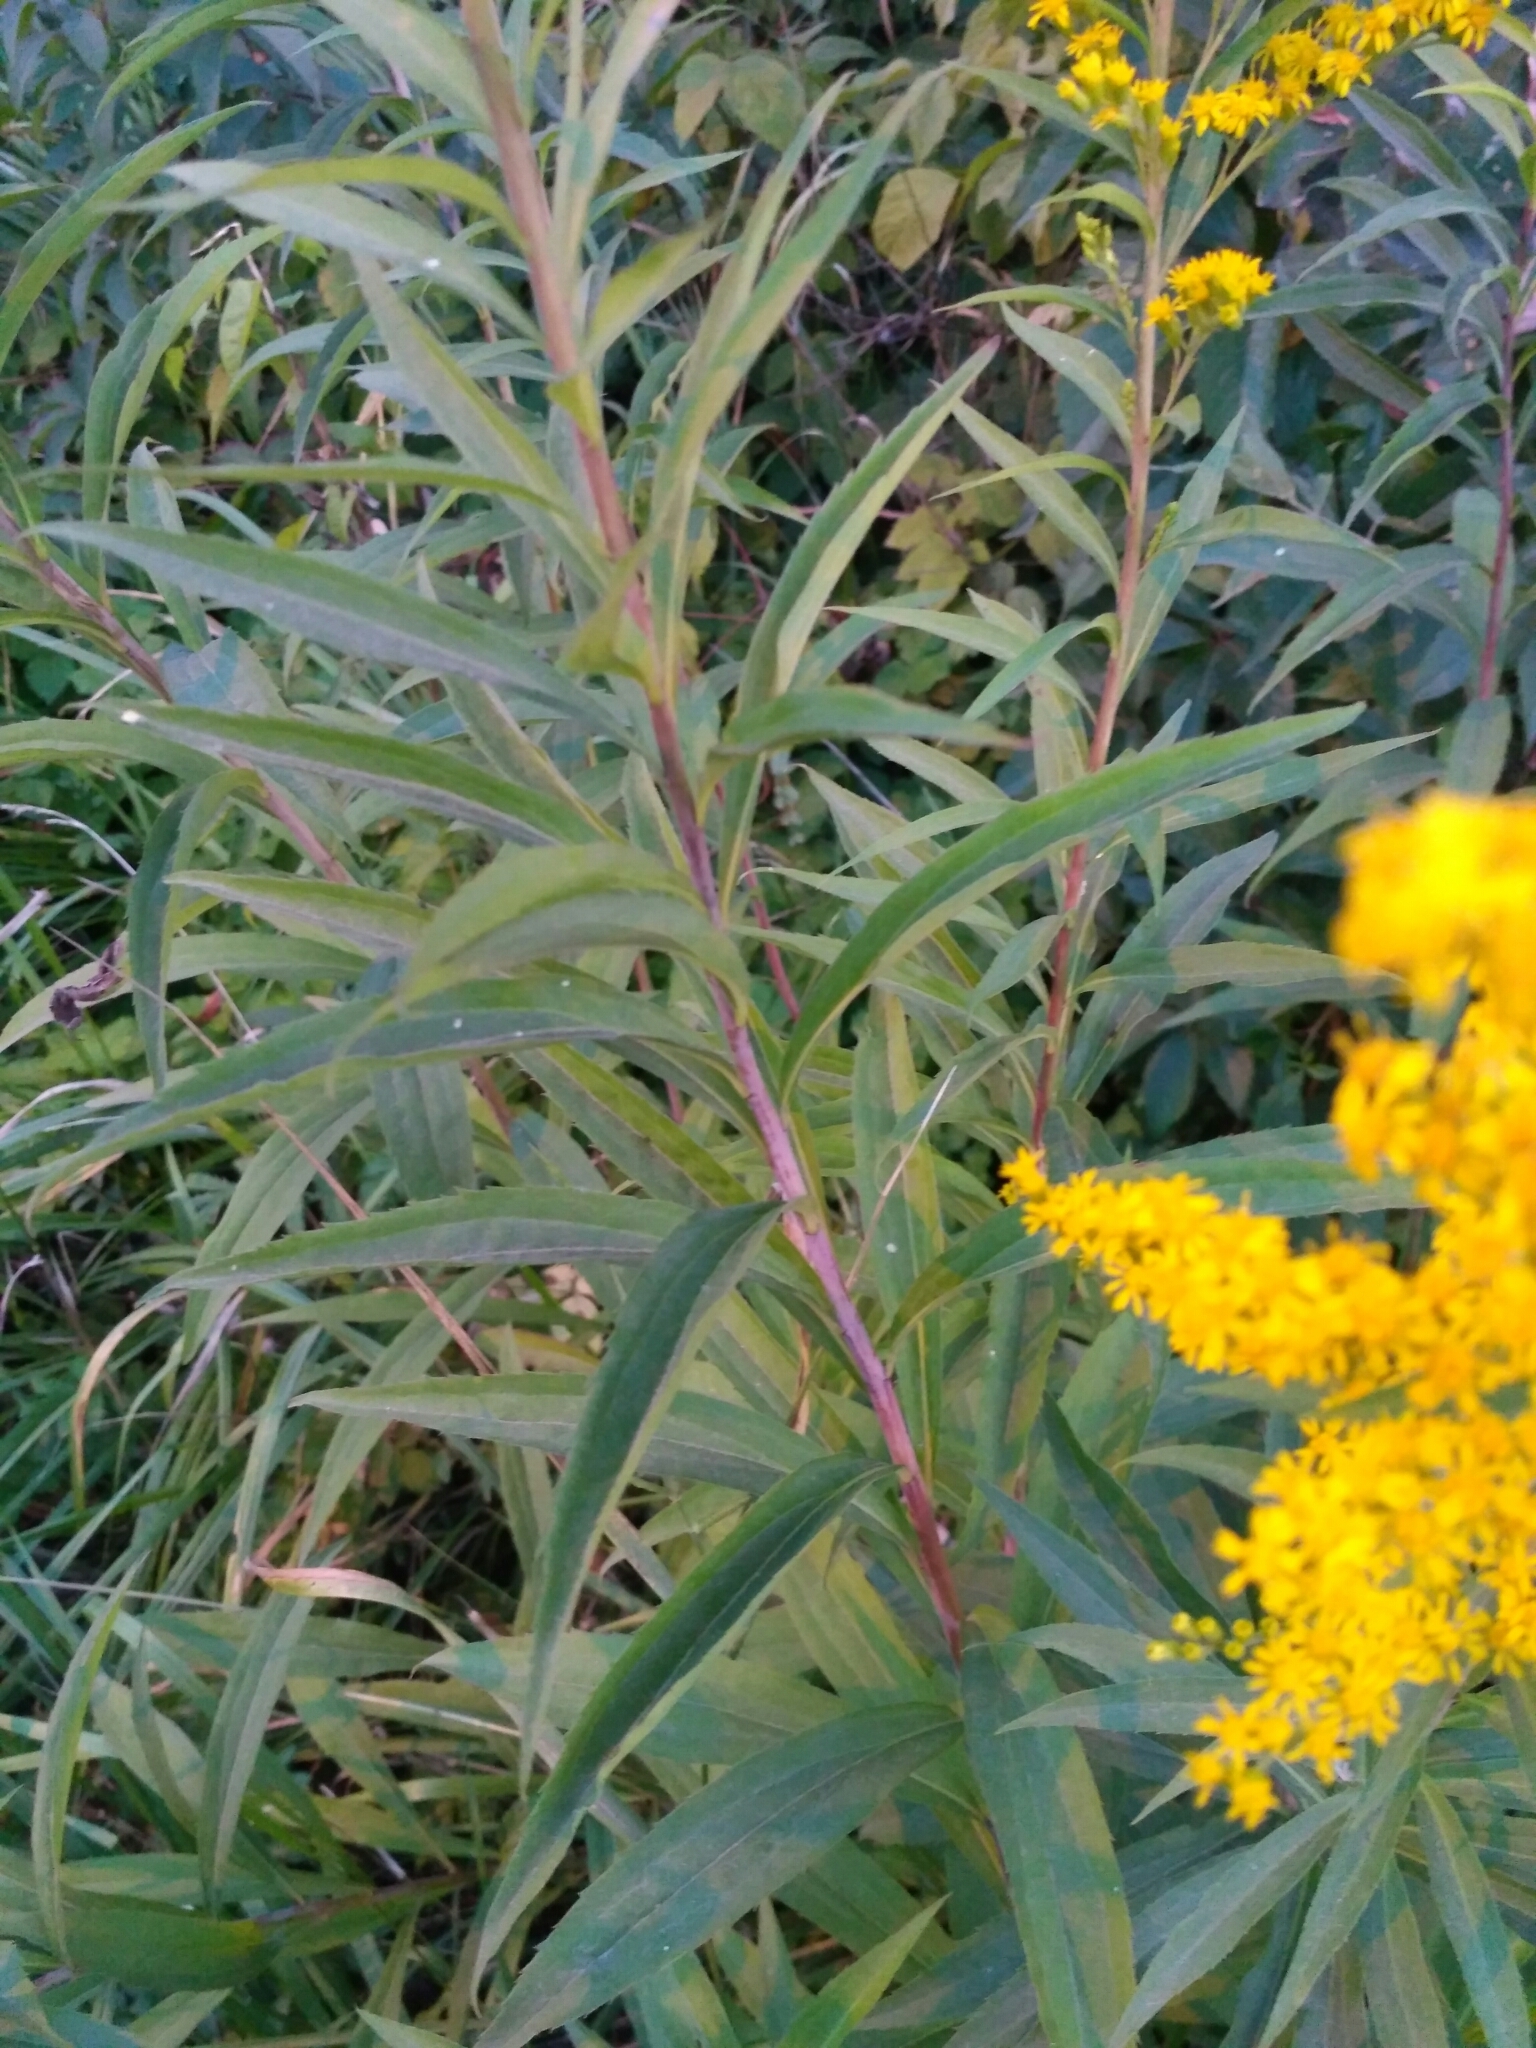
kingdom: Plantae
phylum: Tracheophyta
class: Magnoliopsida
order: Asterales
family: Asteraceae
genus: Solidago
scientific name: Solidago gigantea
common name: Giant goldenrod
